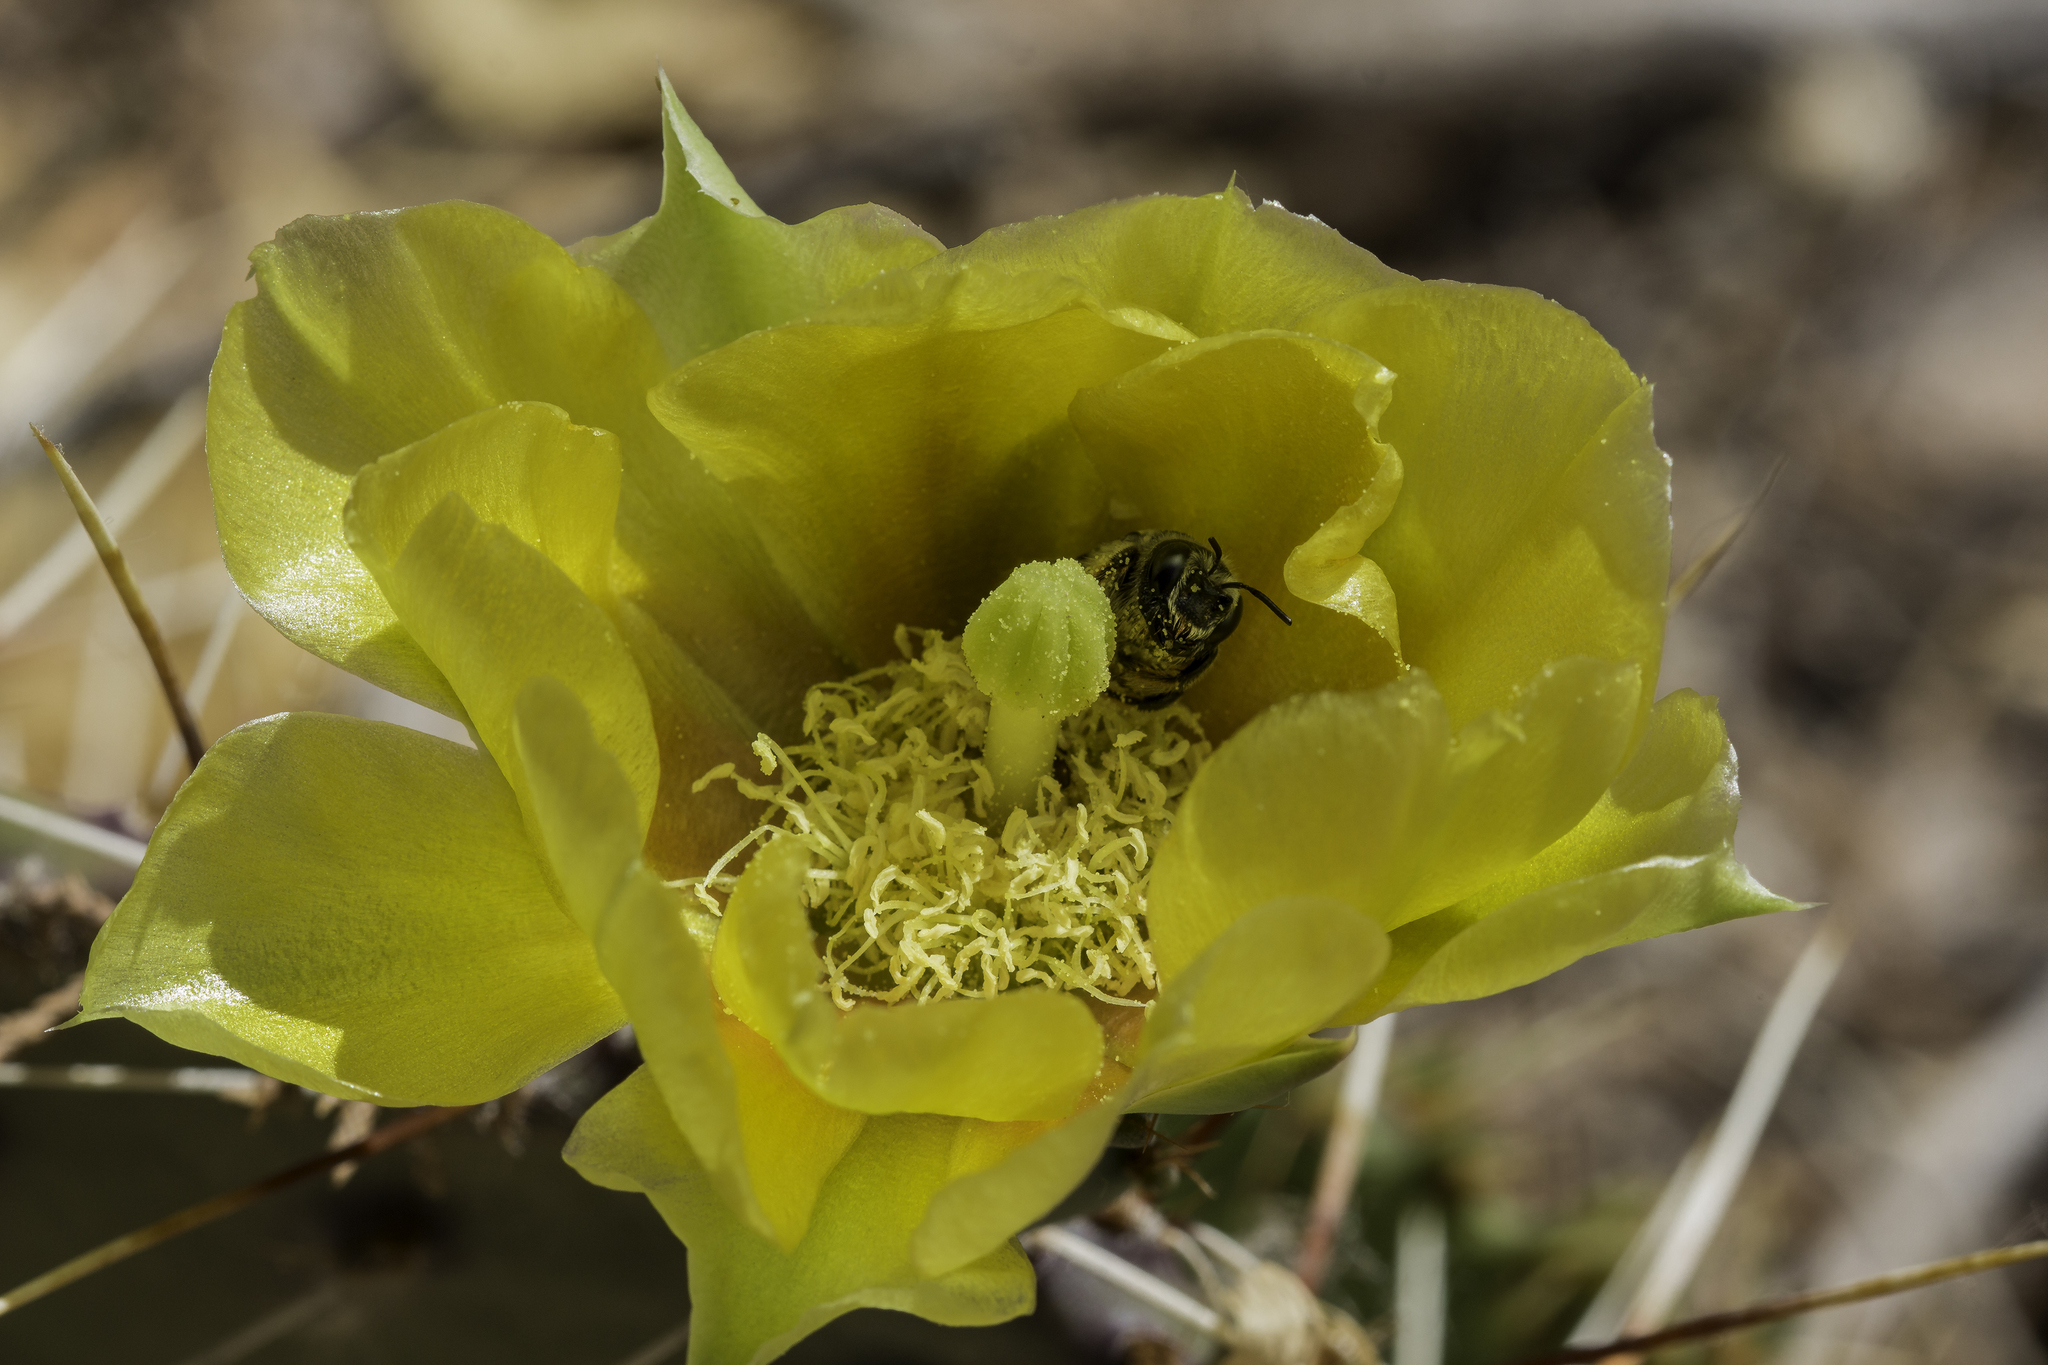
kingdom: Plantae
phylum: Tracheophyta
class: Magnoliopsida
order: Caryophyllales
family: Cactaceae
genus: Opuntia
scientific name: Opuntia phaeacantha
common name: New mexico prickly-pear
